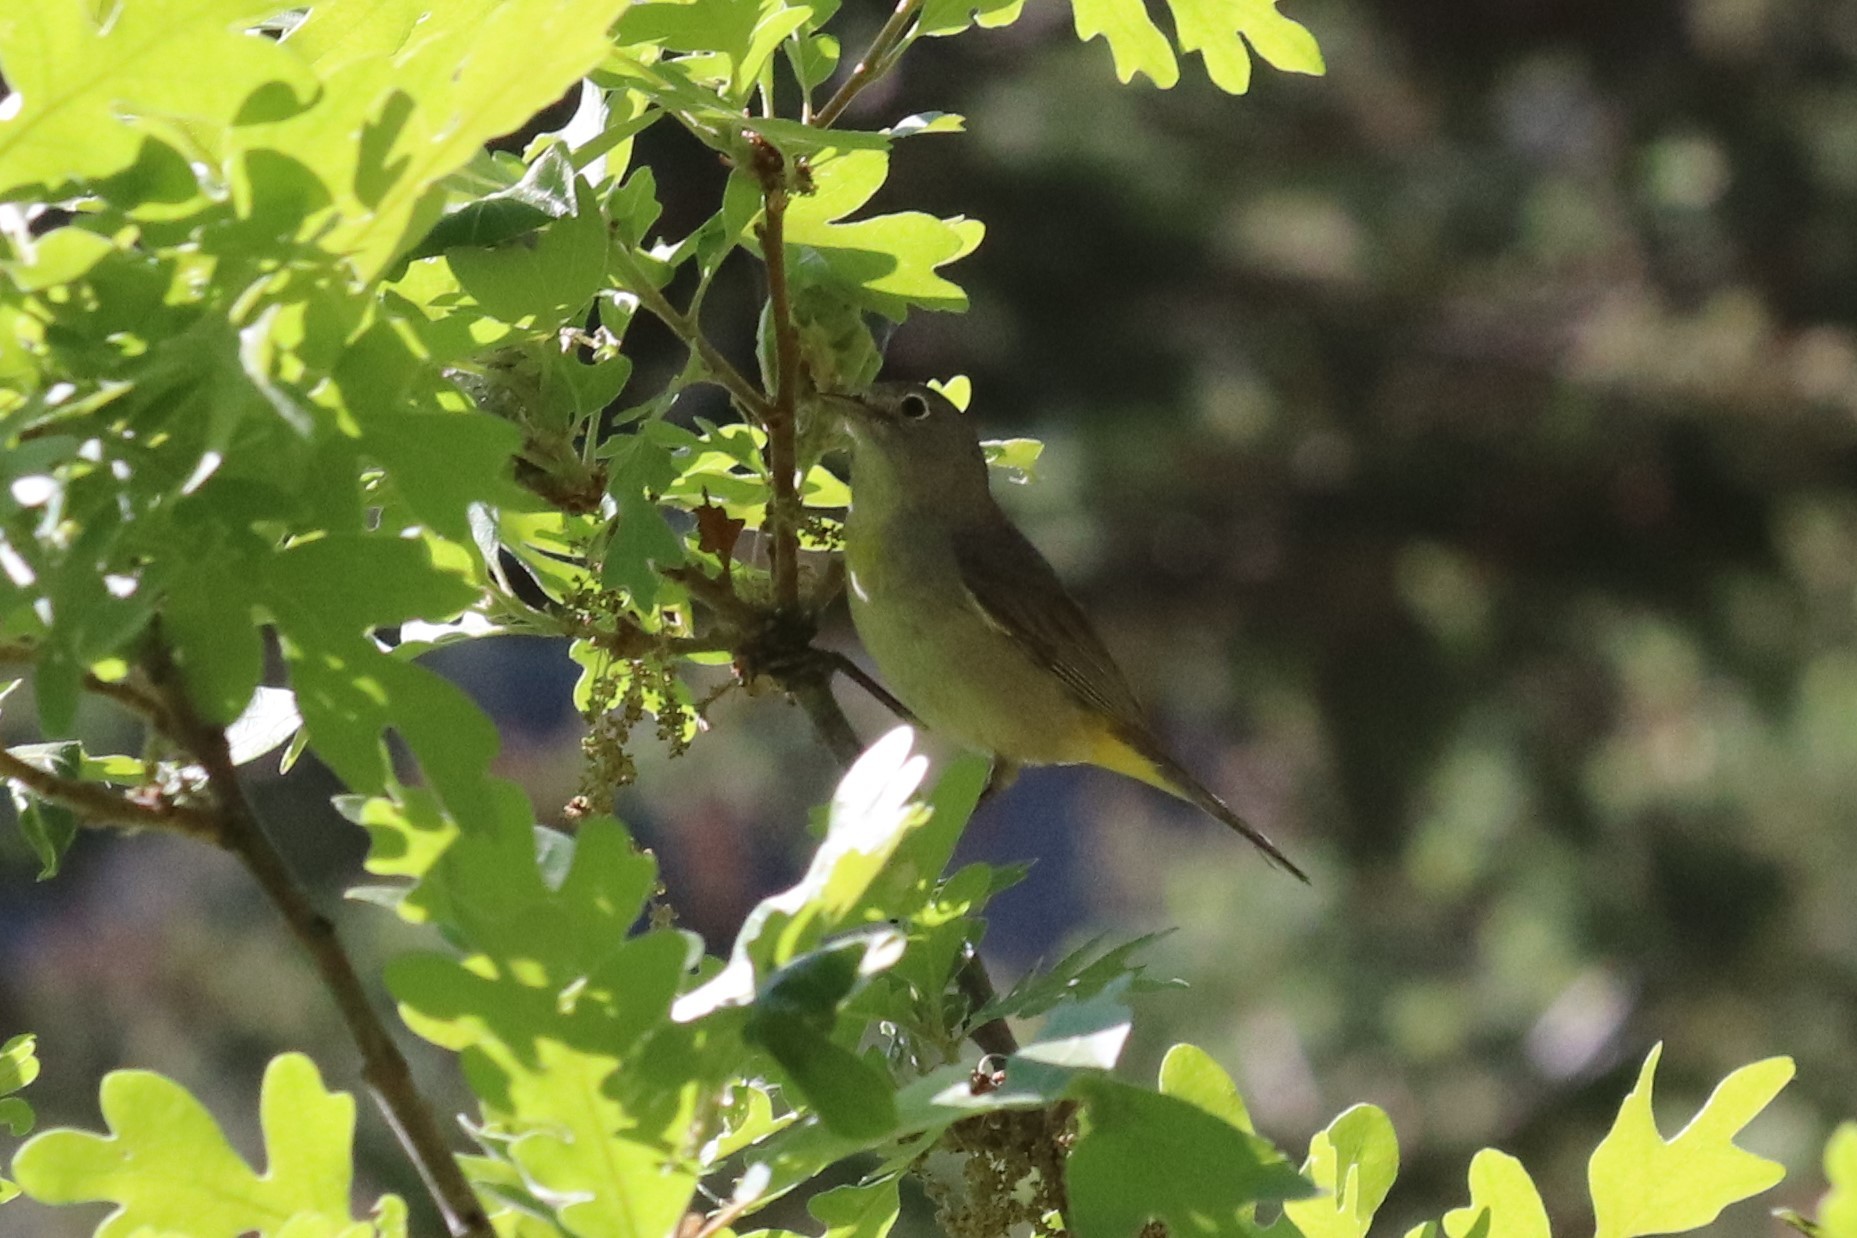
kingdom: Animalia
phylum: Chordata
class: Aves
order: Passeriformes
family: Parulidae
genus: Leiothlypis
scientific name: Leiothlypis virginiae
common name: Virginia's warbler
